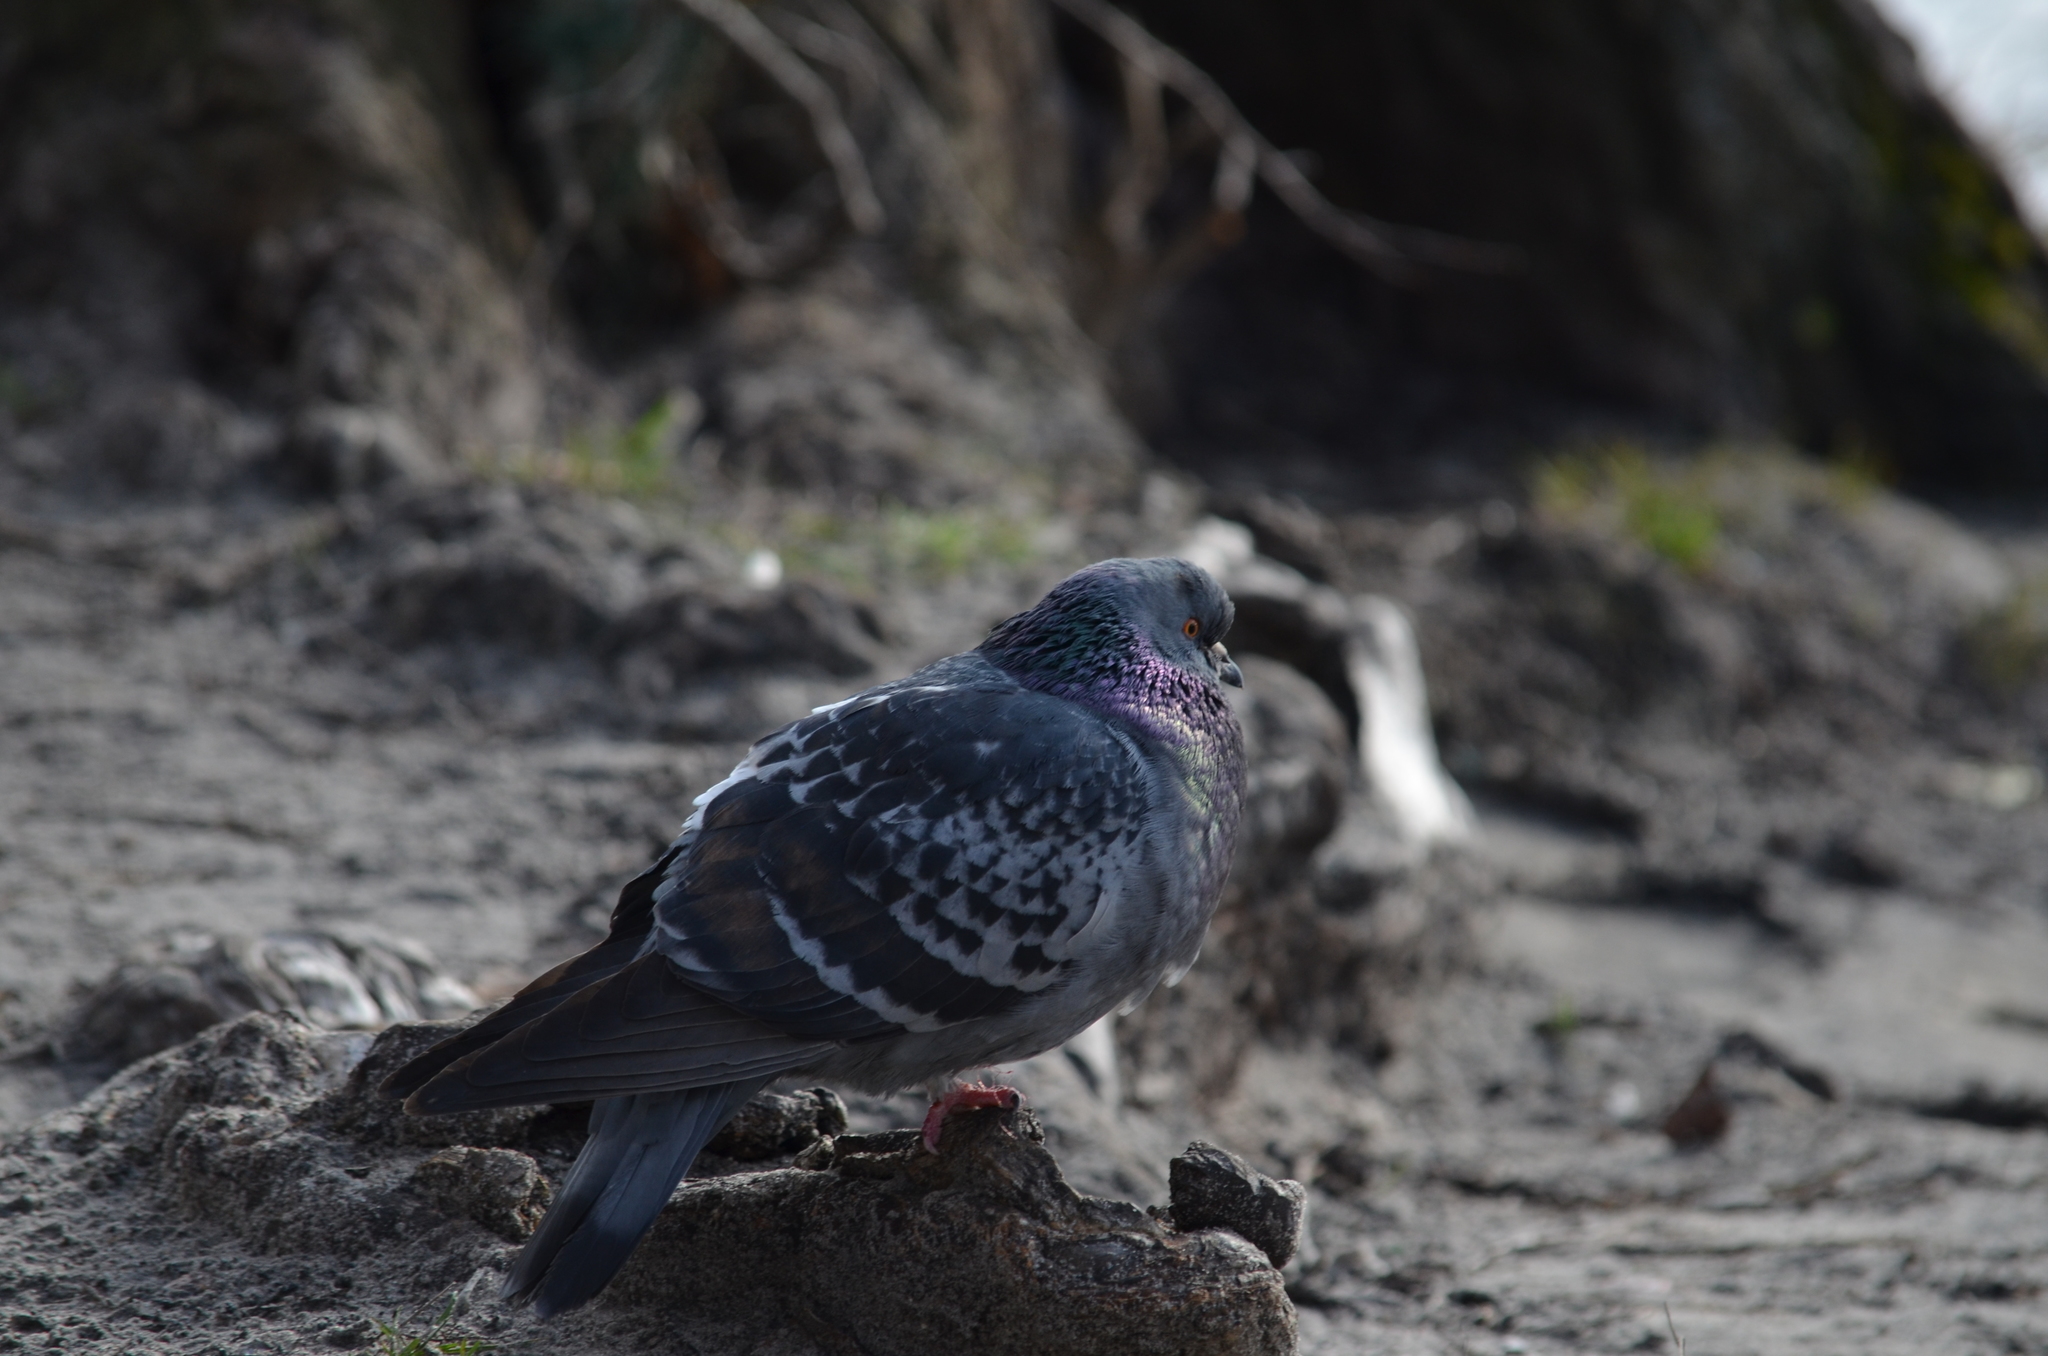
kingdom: Animalia
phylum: Chordata
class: Aves
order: Columbiformes
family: Columbidae
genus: Columba
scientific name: Columba livia
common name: Rock pigeon
